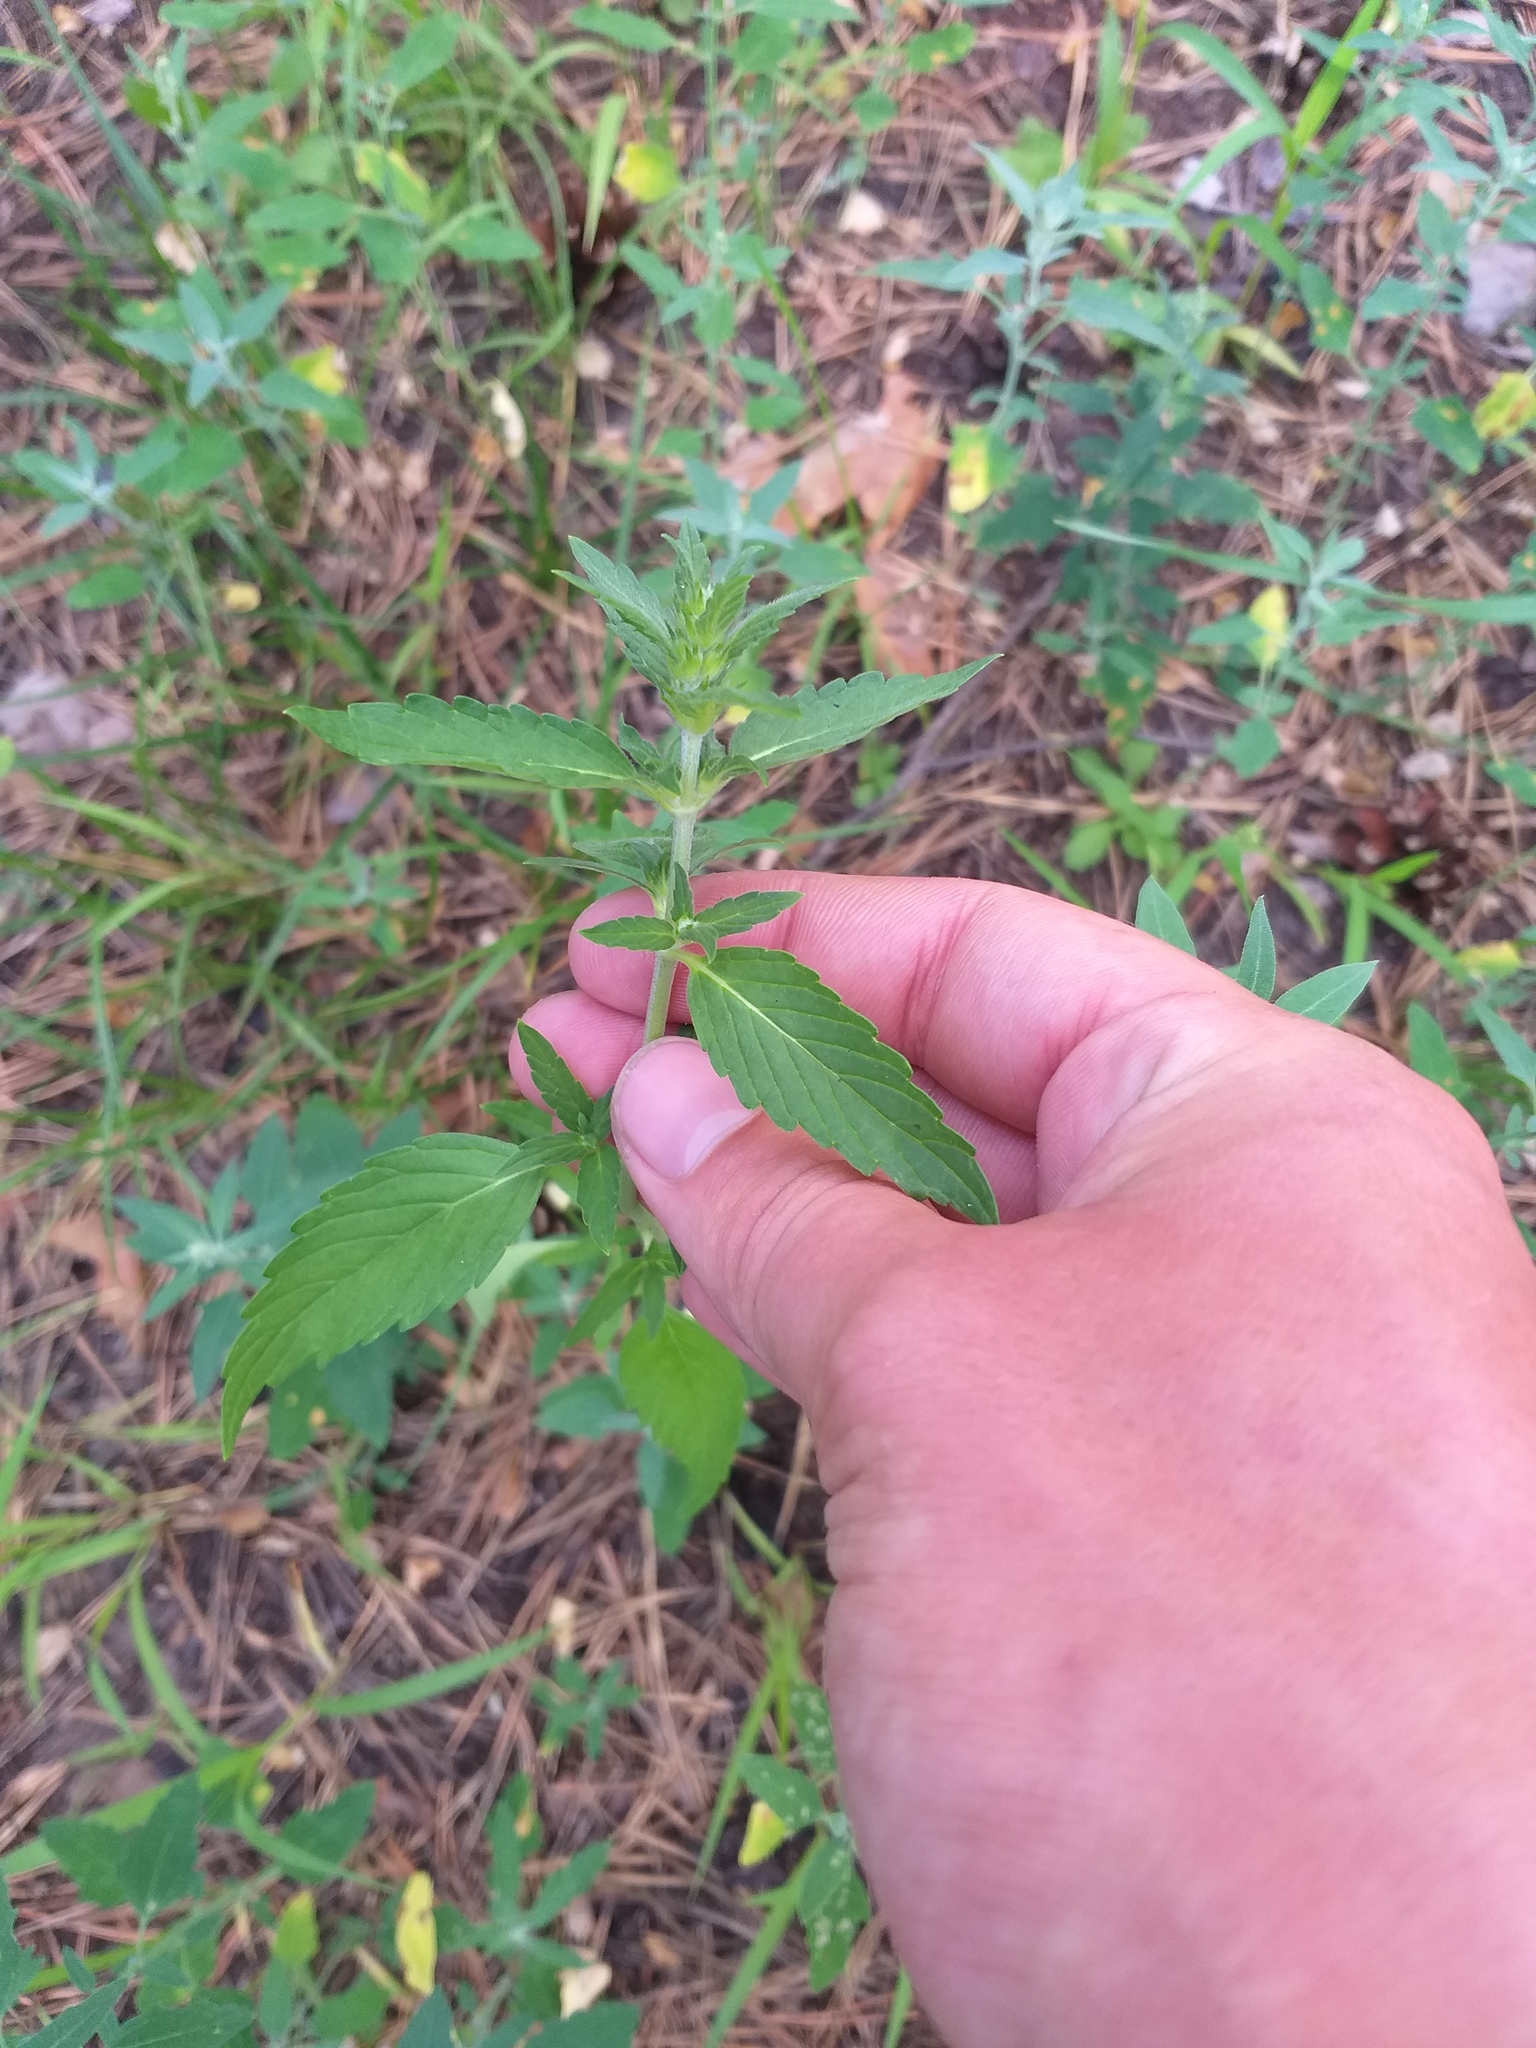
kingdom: Plantae
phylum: Tracheophyta
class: Magnoliopsida
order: Lamiales
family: Lamiaceae
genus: Galeopsis
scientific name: Galeopsis ladanum
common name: Broad-leaved hemp-nettle
